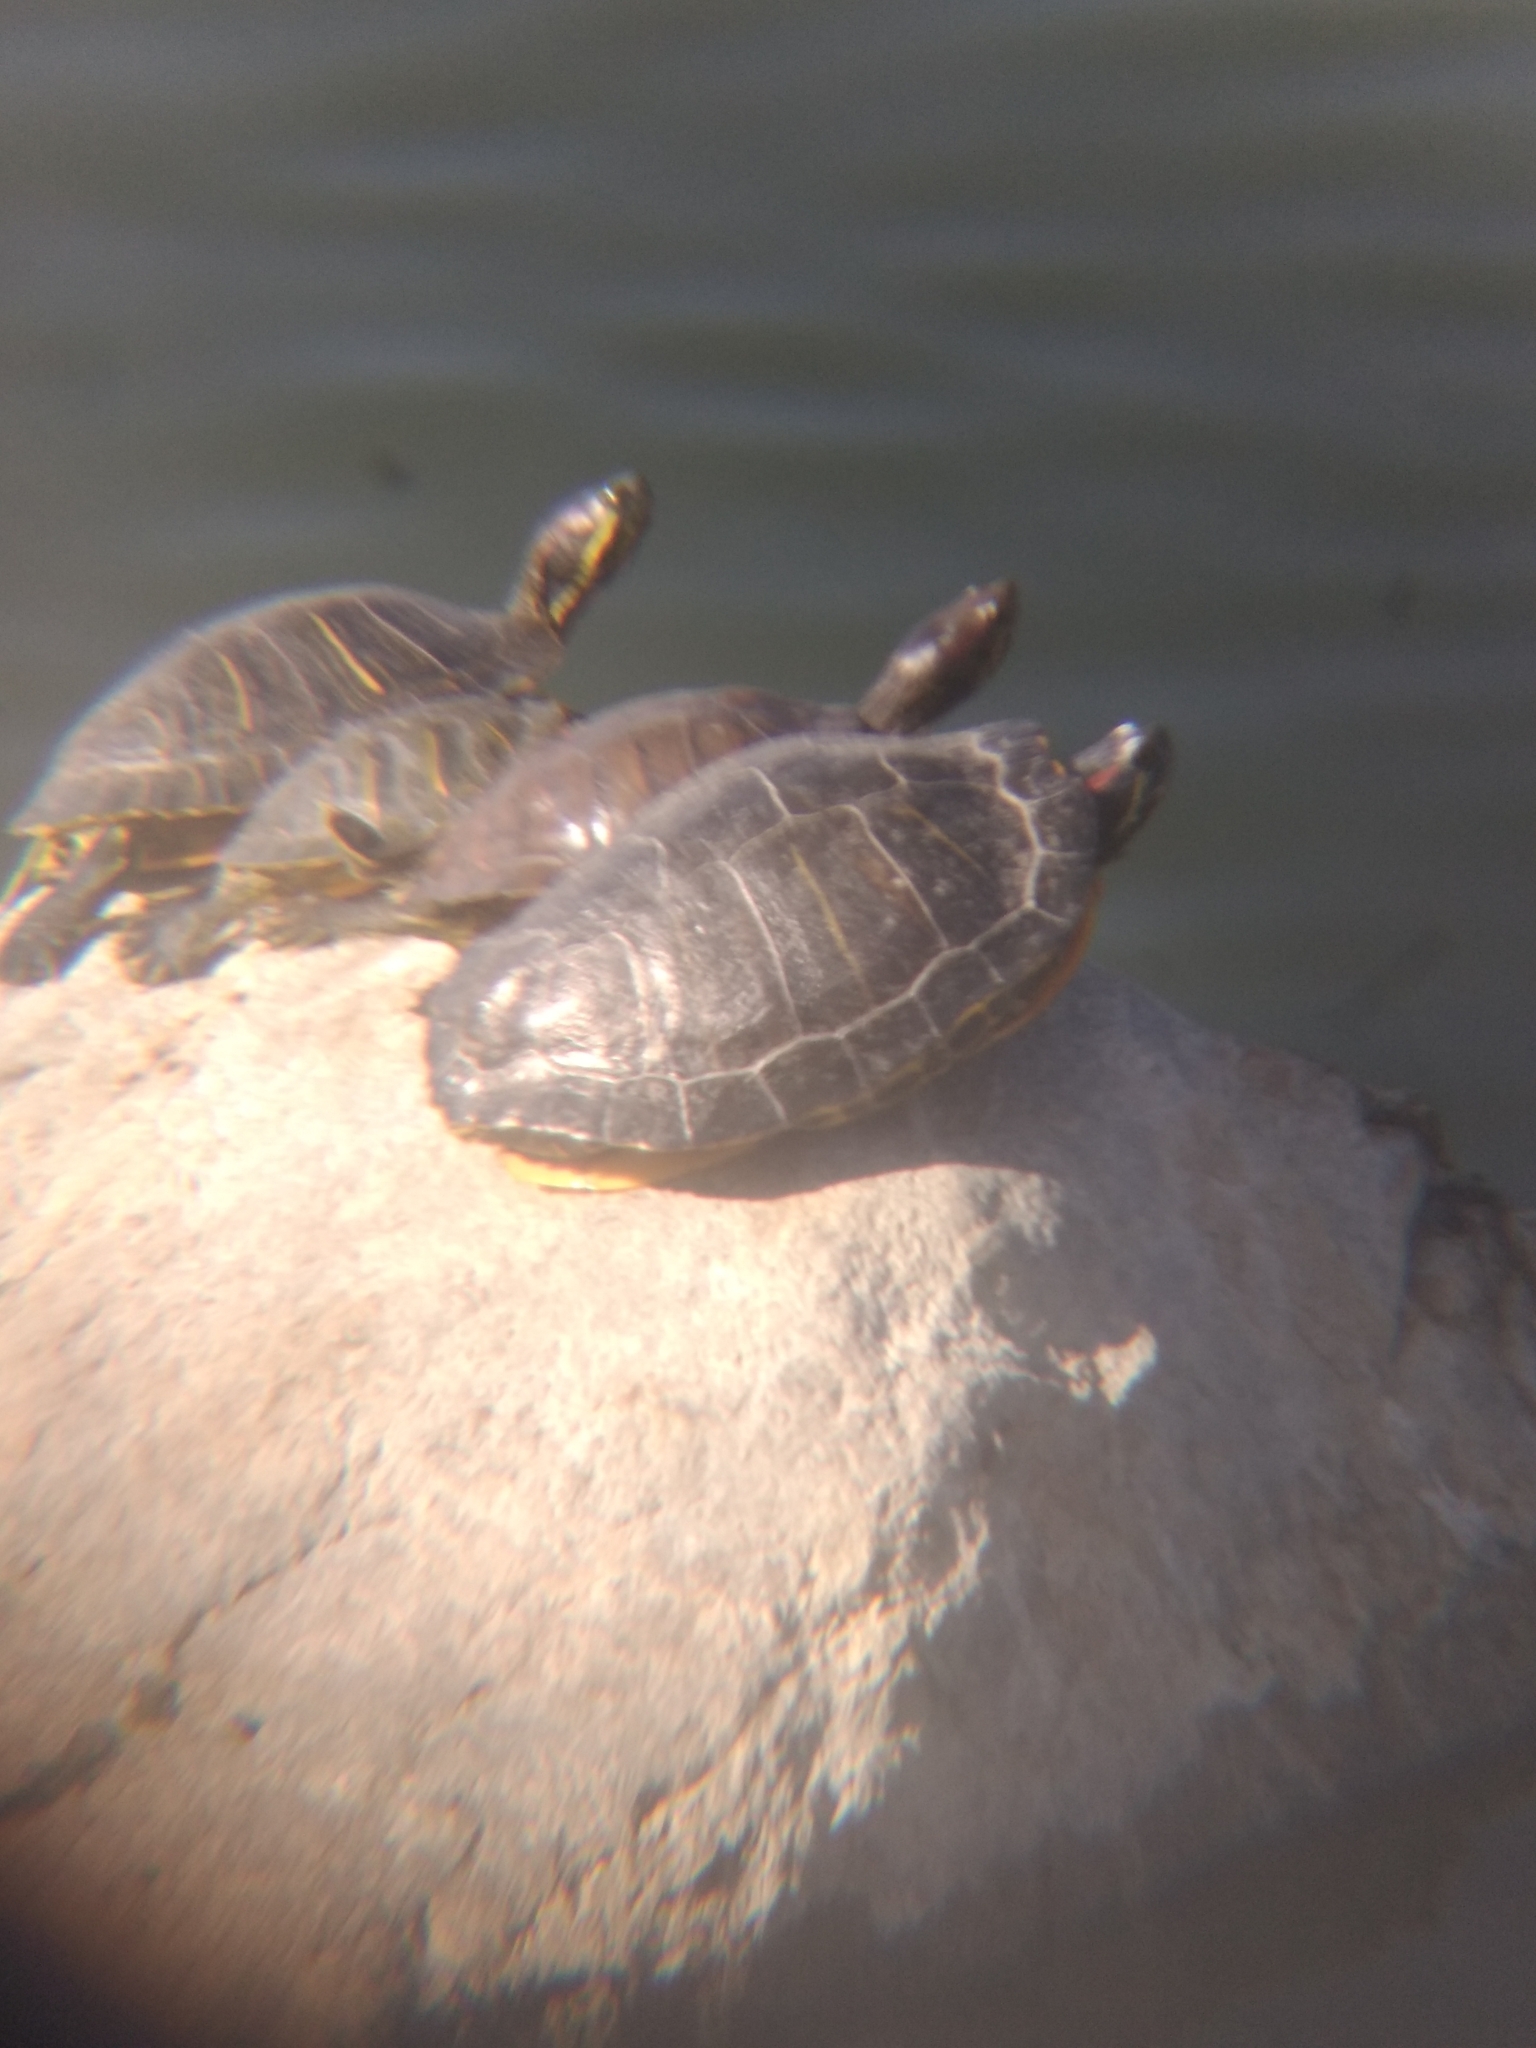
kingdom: Animalia
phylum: Chordata
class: Testudines
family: Emydidae
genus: Trachemys
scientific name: Trachemys scripta
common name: Slider
